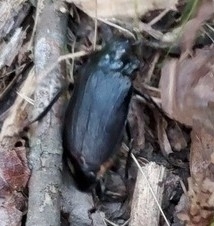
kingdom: Animalia
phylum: Arthropoda
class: Insecta
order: Coleoptera
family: Cerambycidae
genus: Prionus
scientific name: Prionus laticollis
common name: Broad necked prionus
